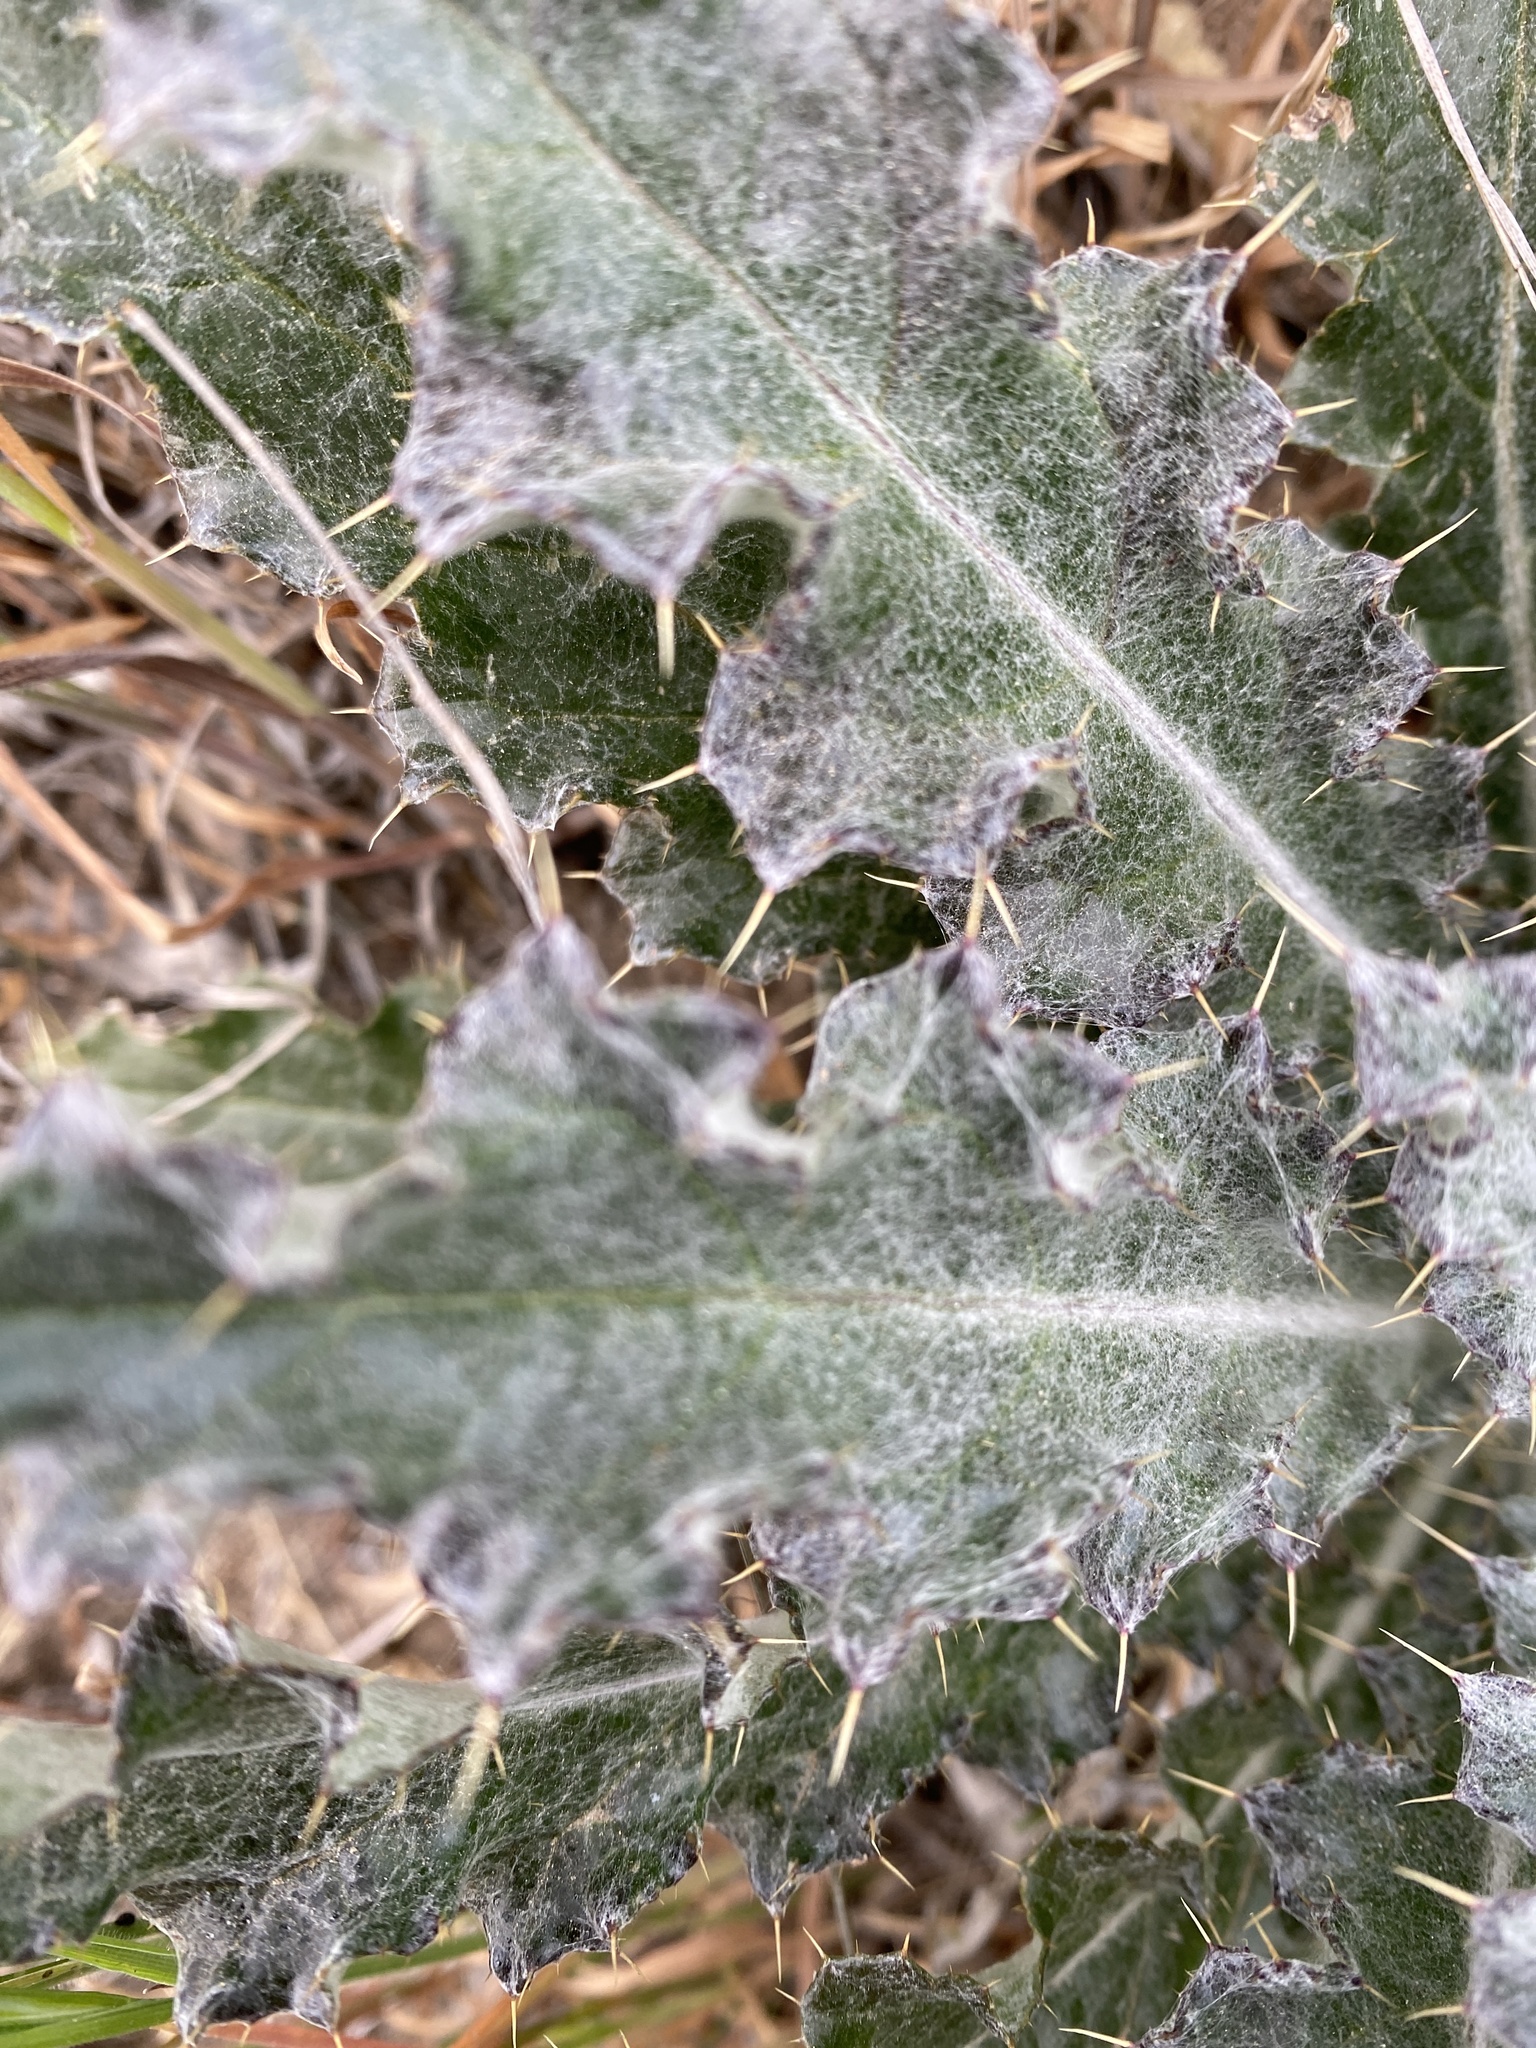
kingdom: Plantae
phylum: Tracheophyta
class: Magnoliopsida
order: Asterales
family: Asteraceae
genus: Cirsium
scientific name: Cirsium occidentale
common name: Western thistle
